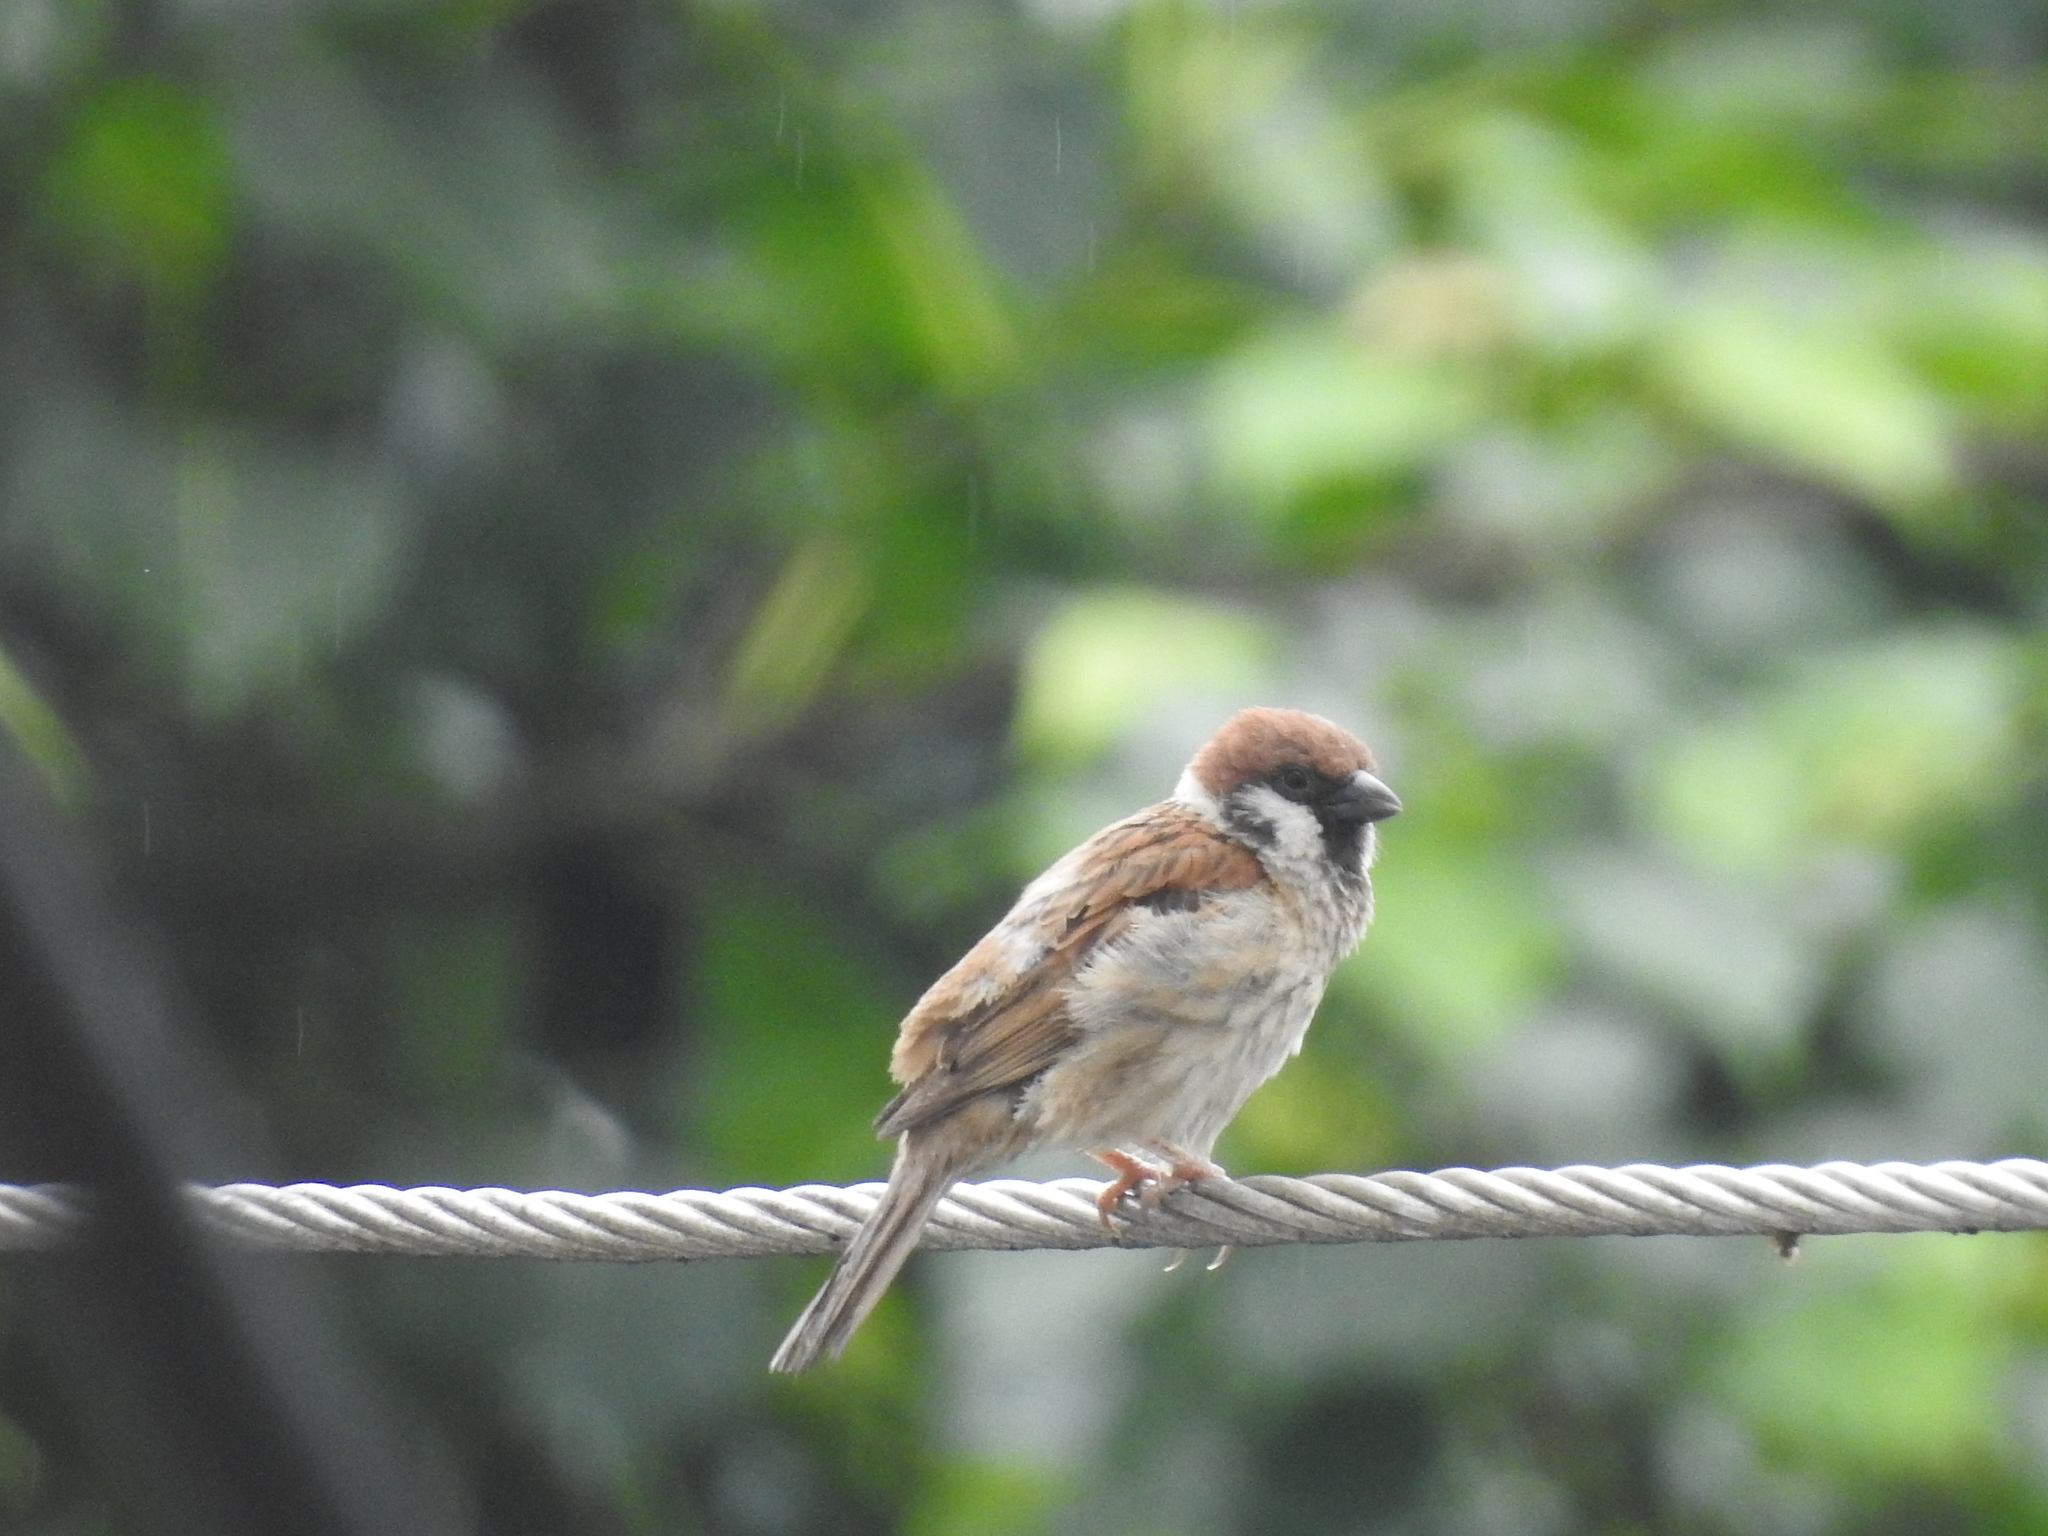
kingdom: Animalia
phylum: Chordata
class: Aves
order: Passeriformes
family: Passeridae
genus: Passer
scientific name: Passer montanus
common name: Eurasian tree sparrow
